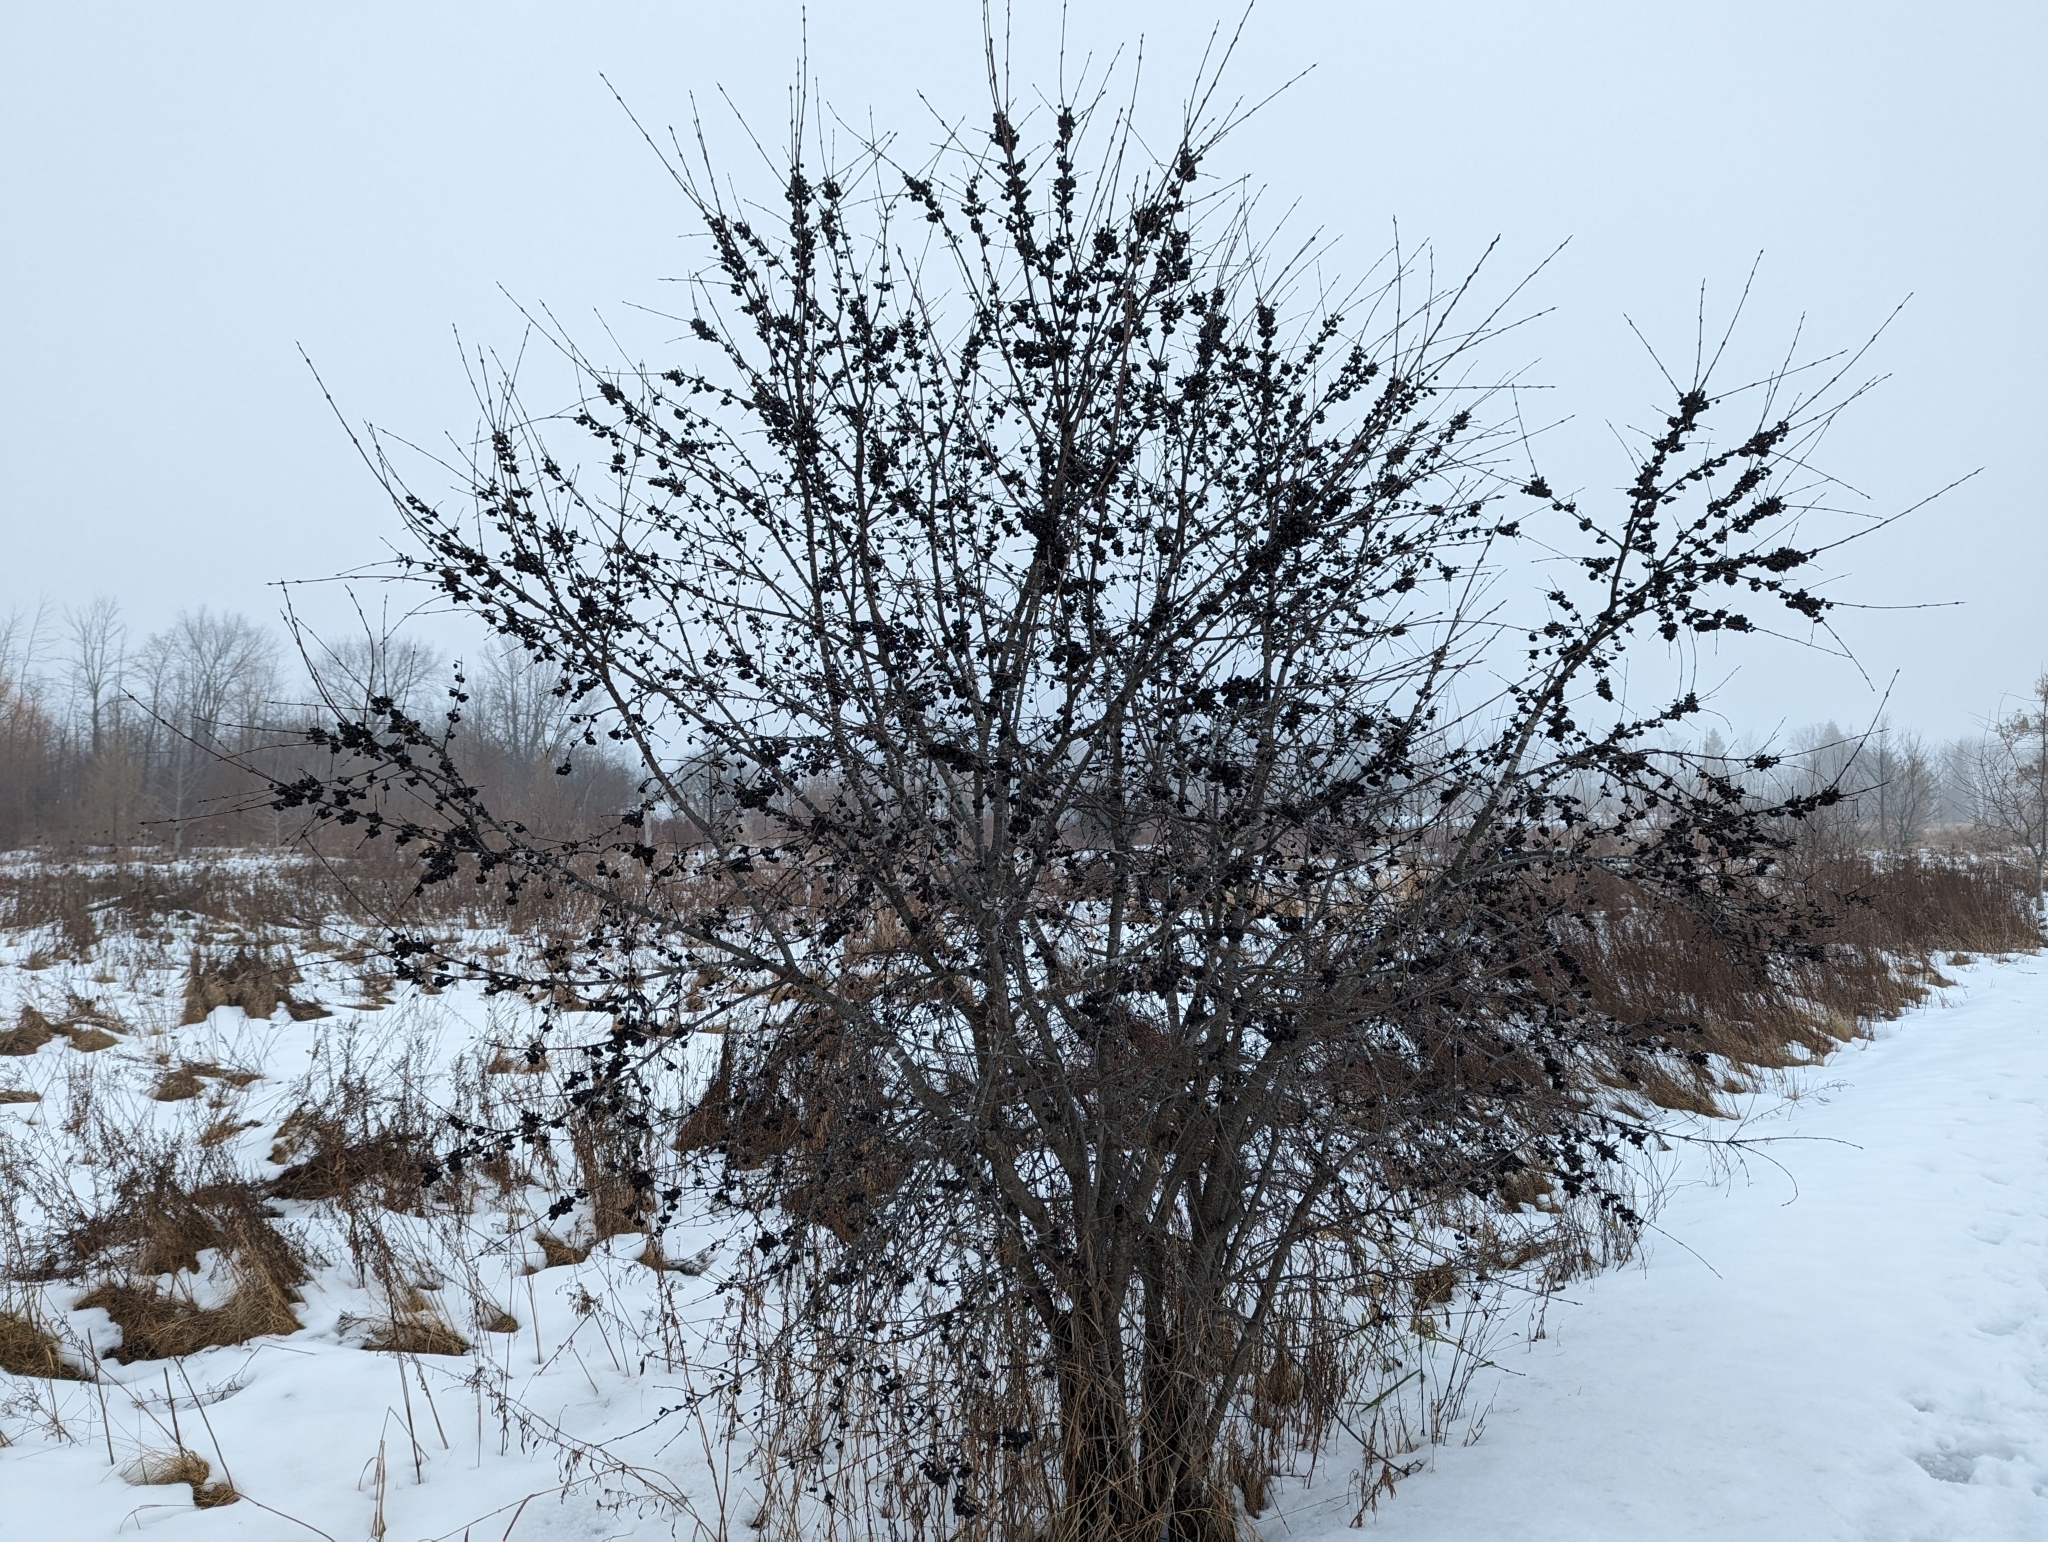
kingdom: Plantae
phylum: Tracheophyta
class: Magnoliopsida
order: Rosales
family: Rhamnaceae
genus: Rhamnus
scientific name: Rhamnus cathartica
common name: Common buckthorn
